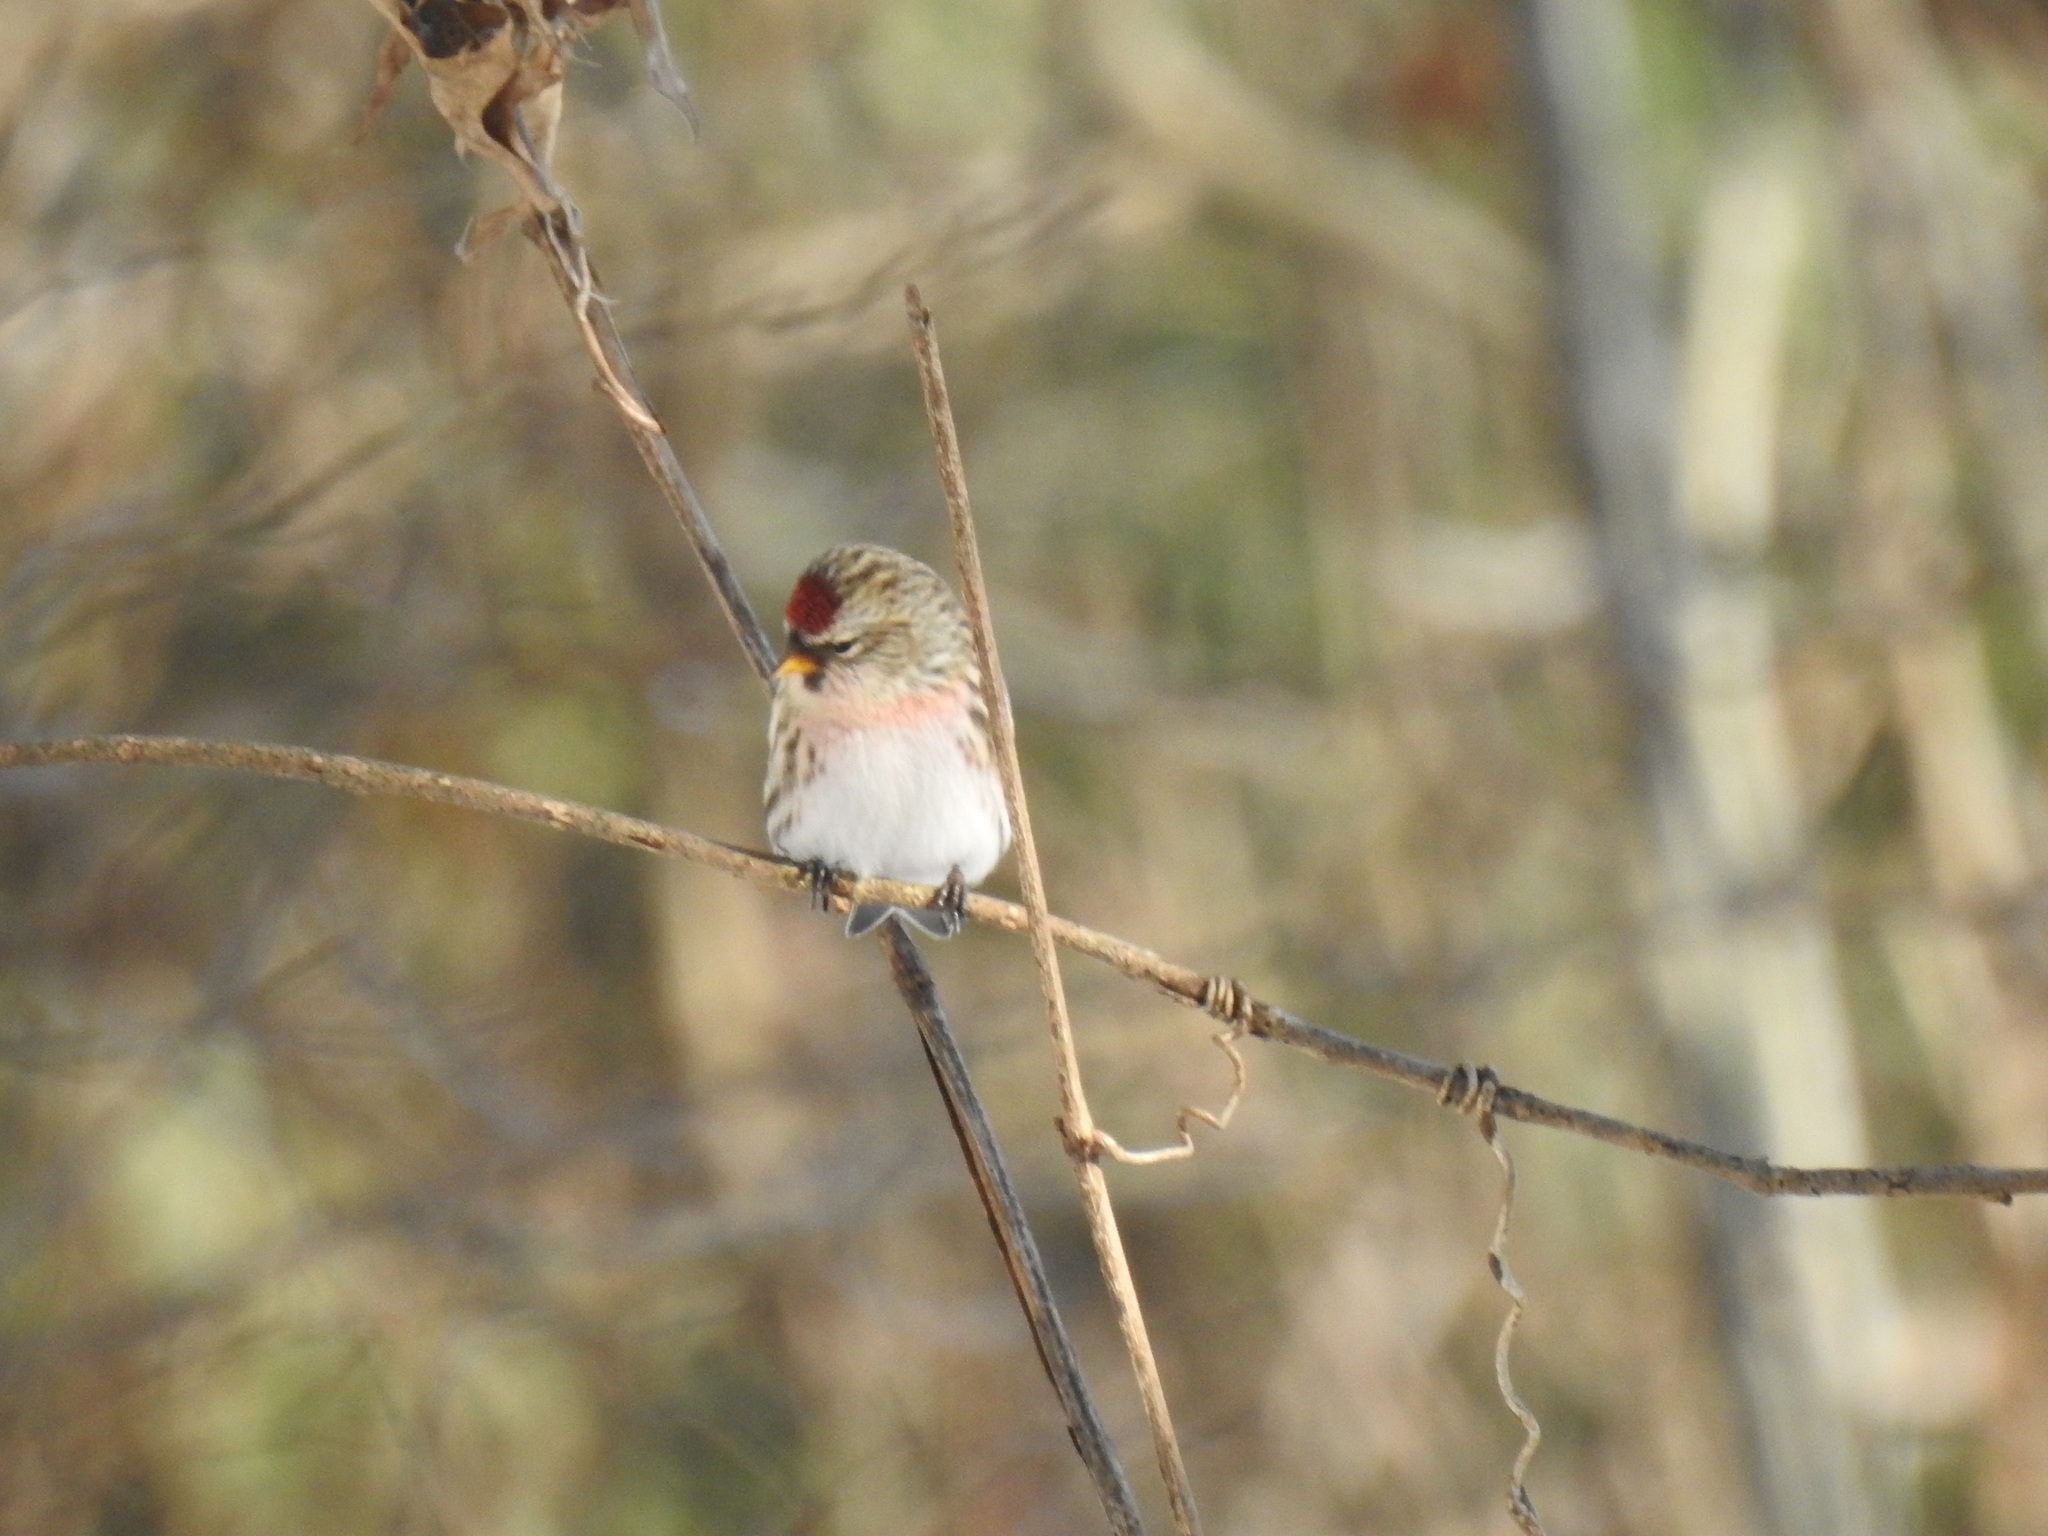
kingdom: Animalia
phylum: Chordata
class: Aves
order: Passeriformes
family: Fringillidae
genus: Acanthis
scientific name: Acanthis flammea
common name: Common redpoll
